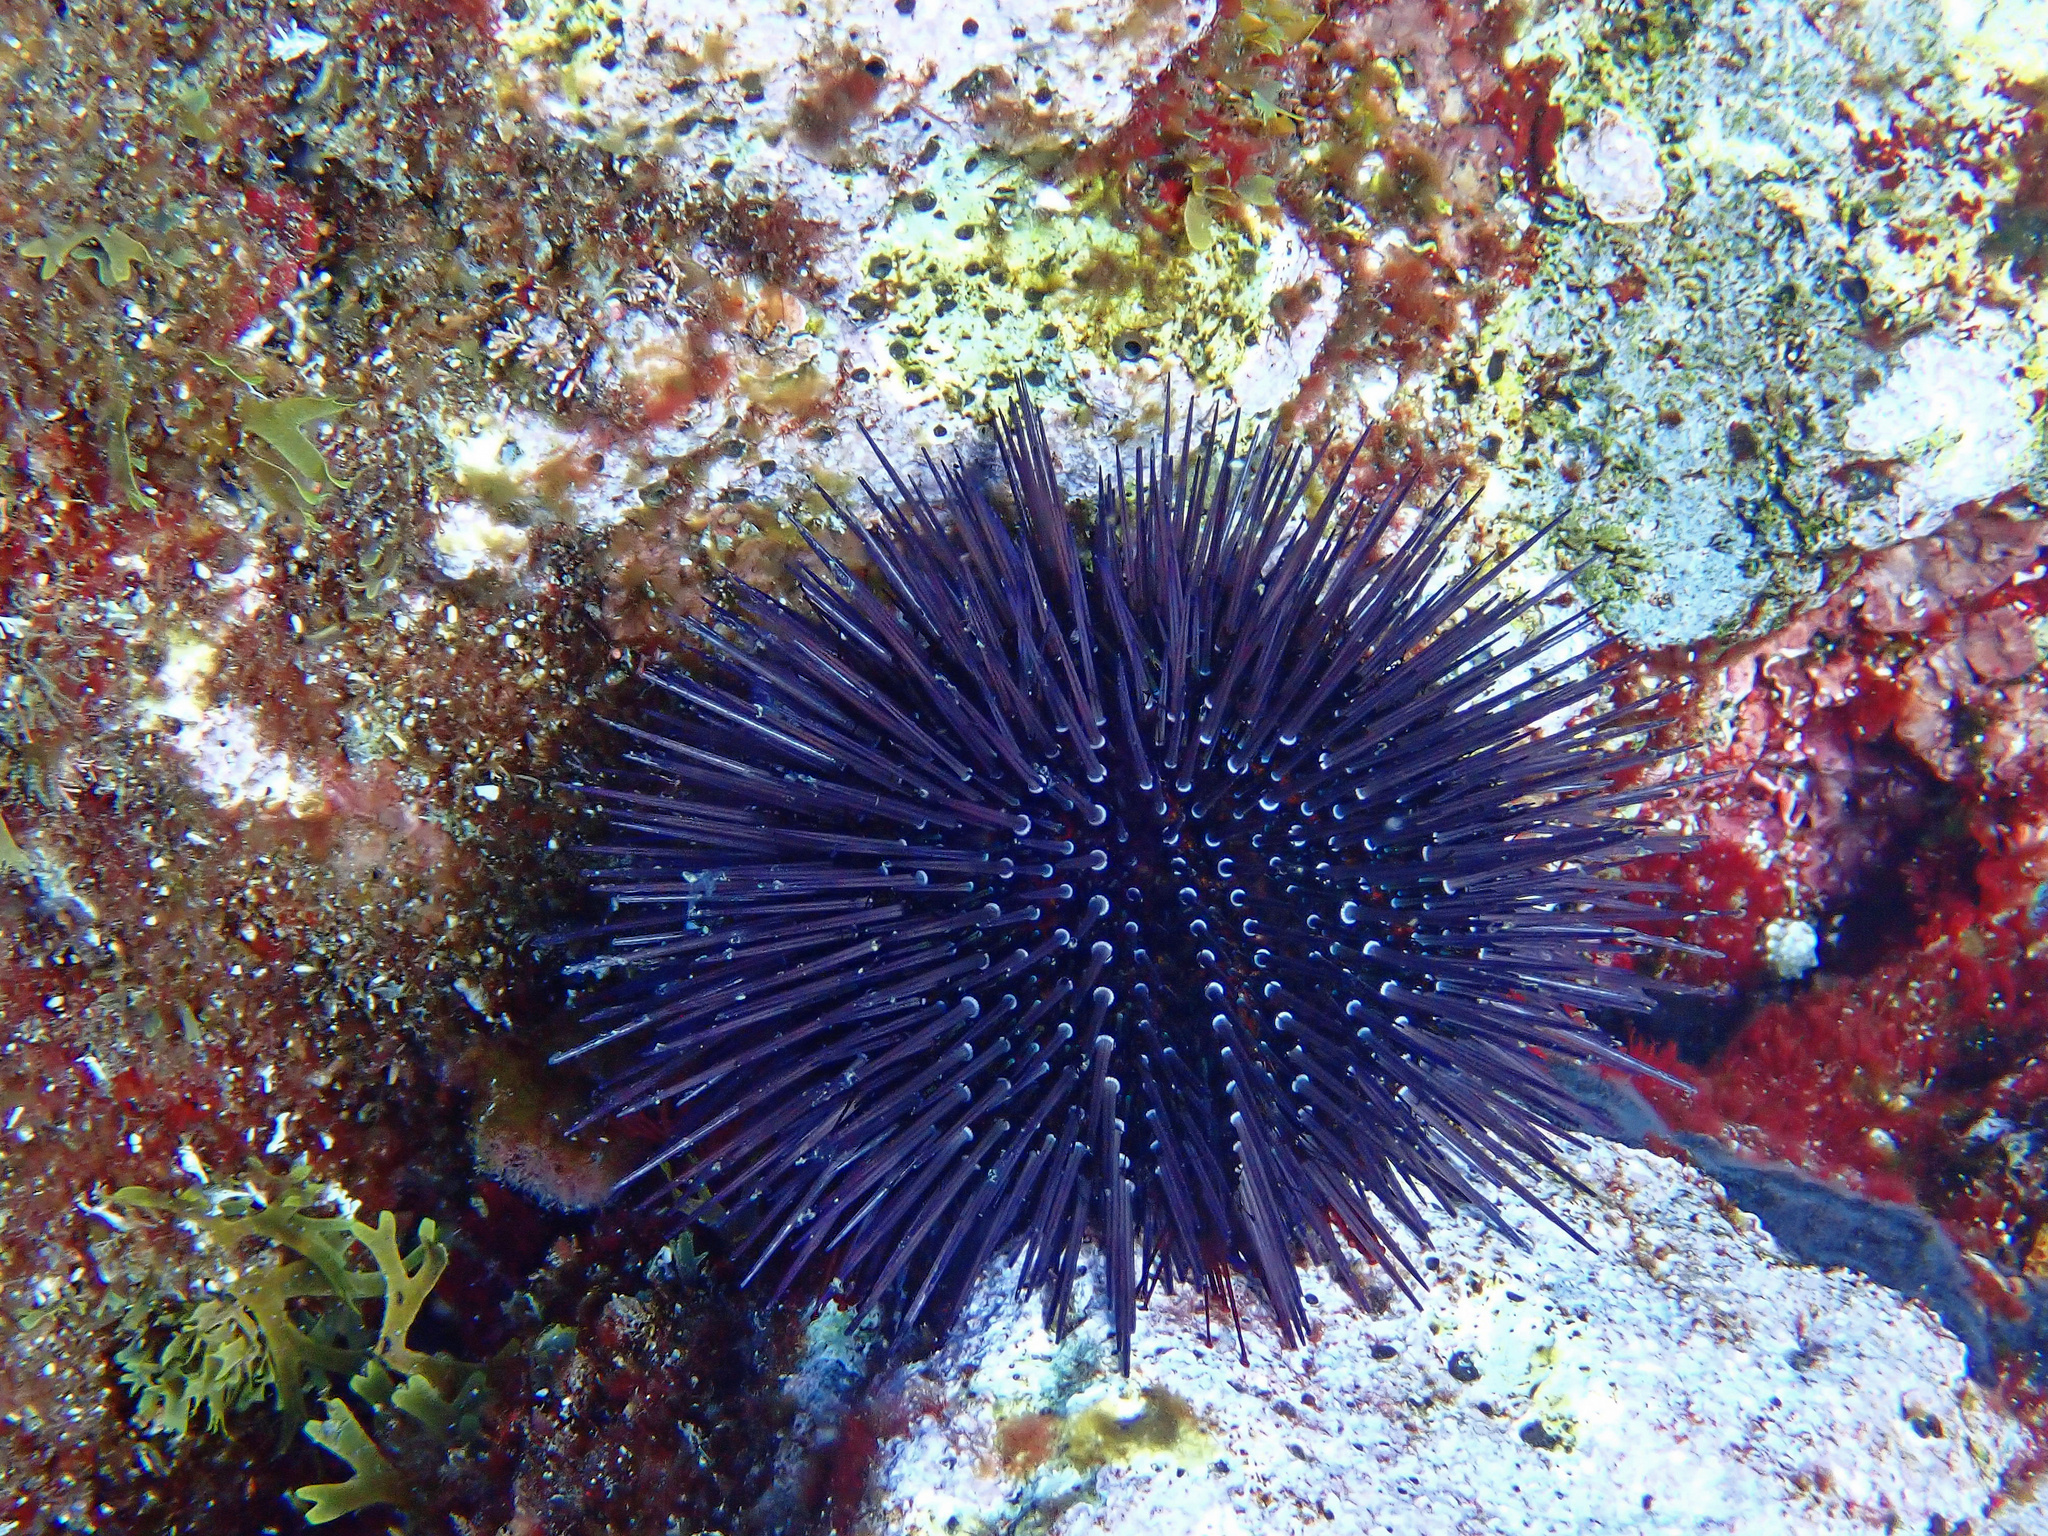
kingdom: Animalia
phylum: Echinodermata
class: Echinoidea
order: Camarodonta
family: Parechinidae
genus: Paracentrotus
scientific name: Paracentrotus lividus
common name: Purple sea urchin
